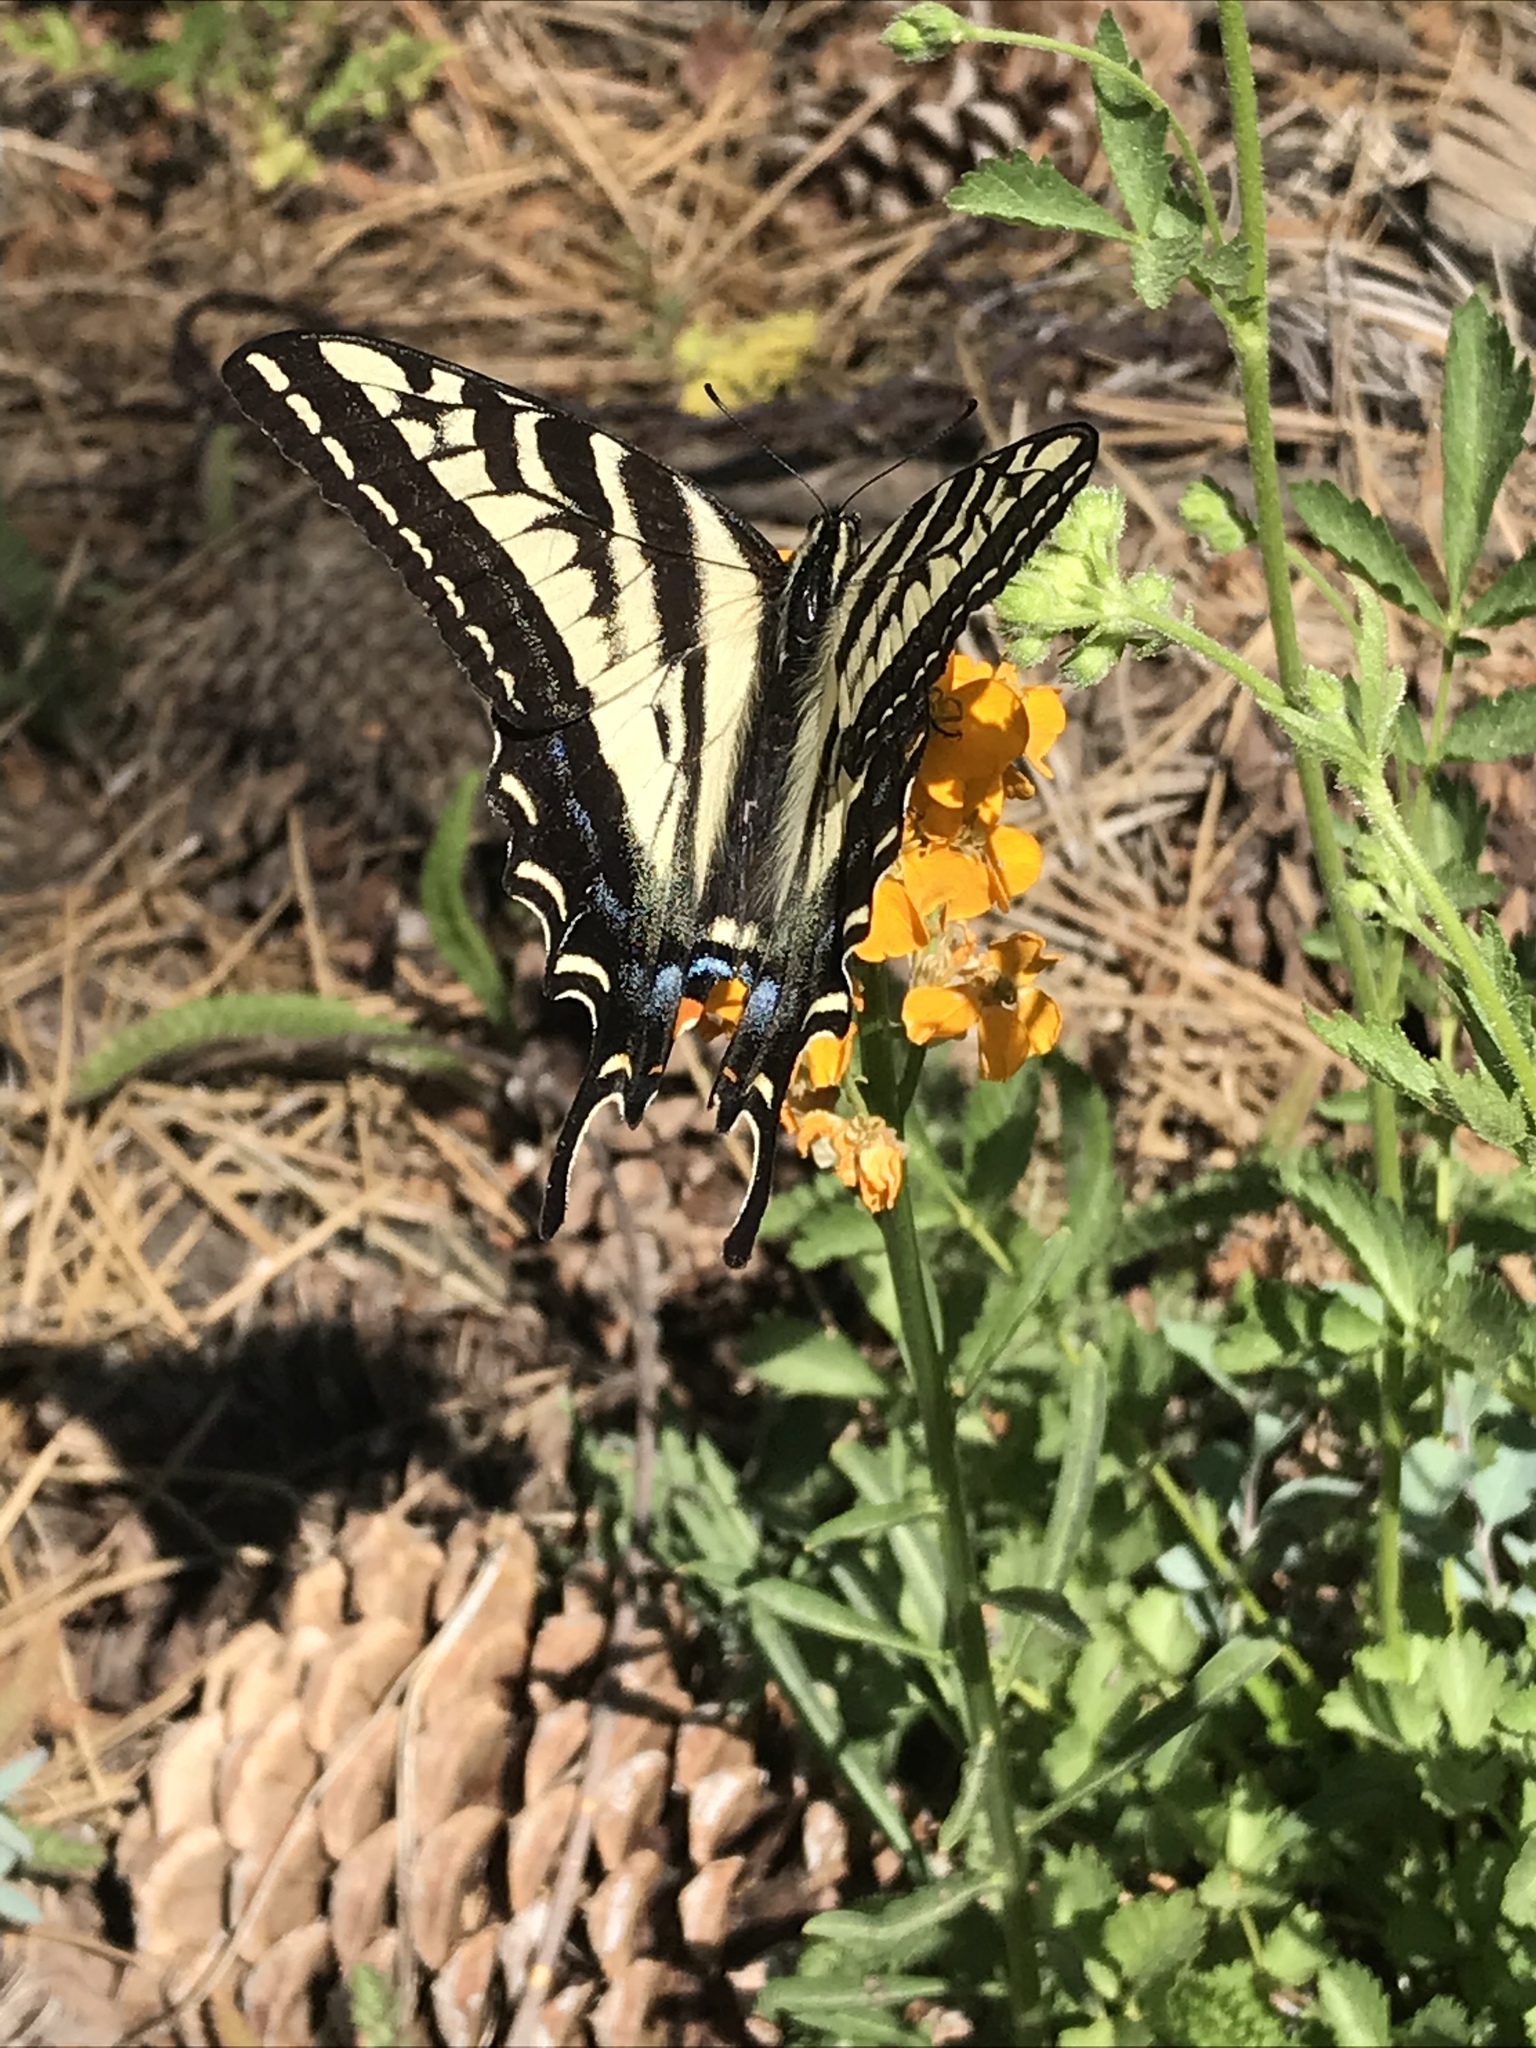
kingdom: Animalia
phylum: Arthropoda
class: Insecta
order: Lepidoptera
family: Papilionidae
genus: Papilio
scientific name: Papilio eurymedon
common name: Pale tiger swallowtail
